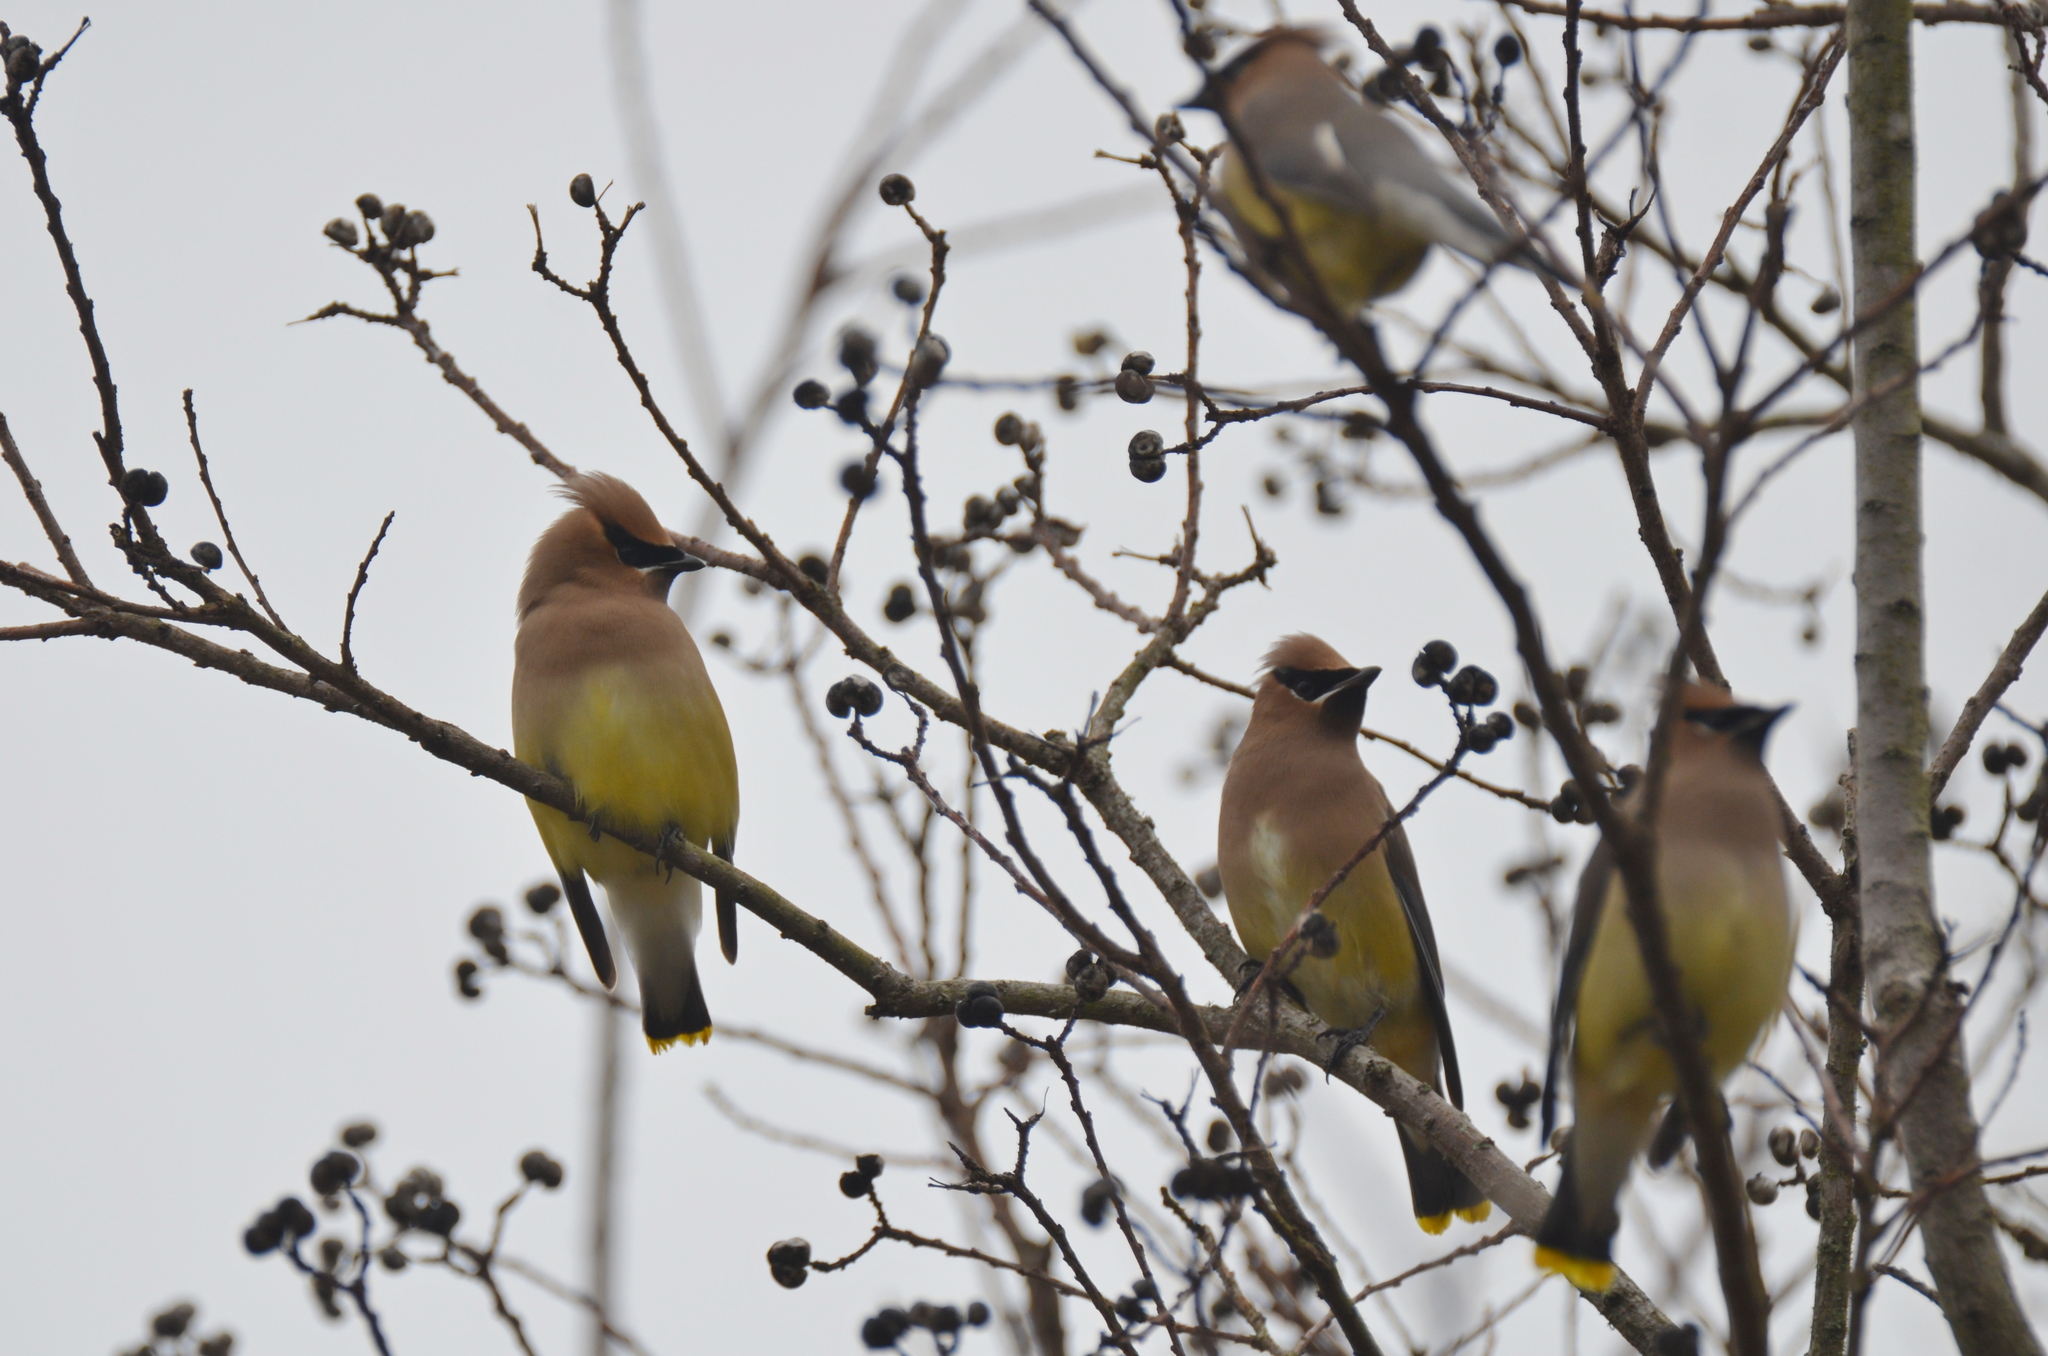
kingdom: Animalia
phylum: Chordata
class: Aves
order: Passeriformes
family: Bombycillidae
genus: Bombycilla
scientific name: Bombycilla cedrorum
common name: Cedar waxwing
